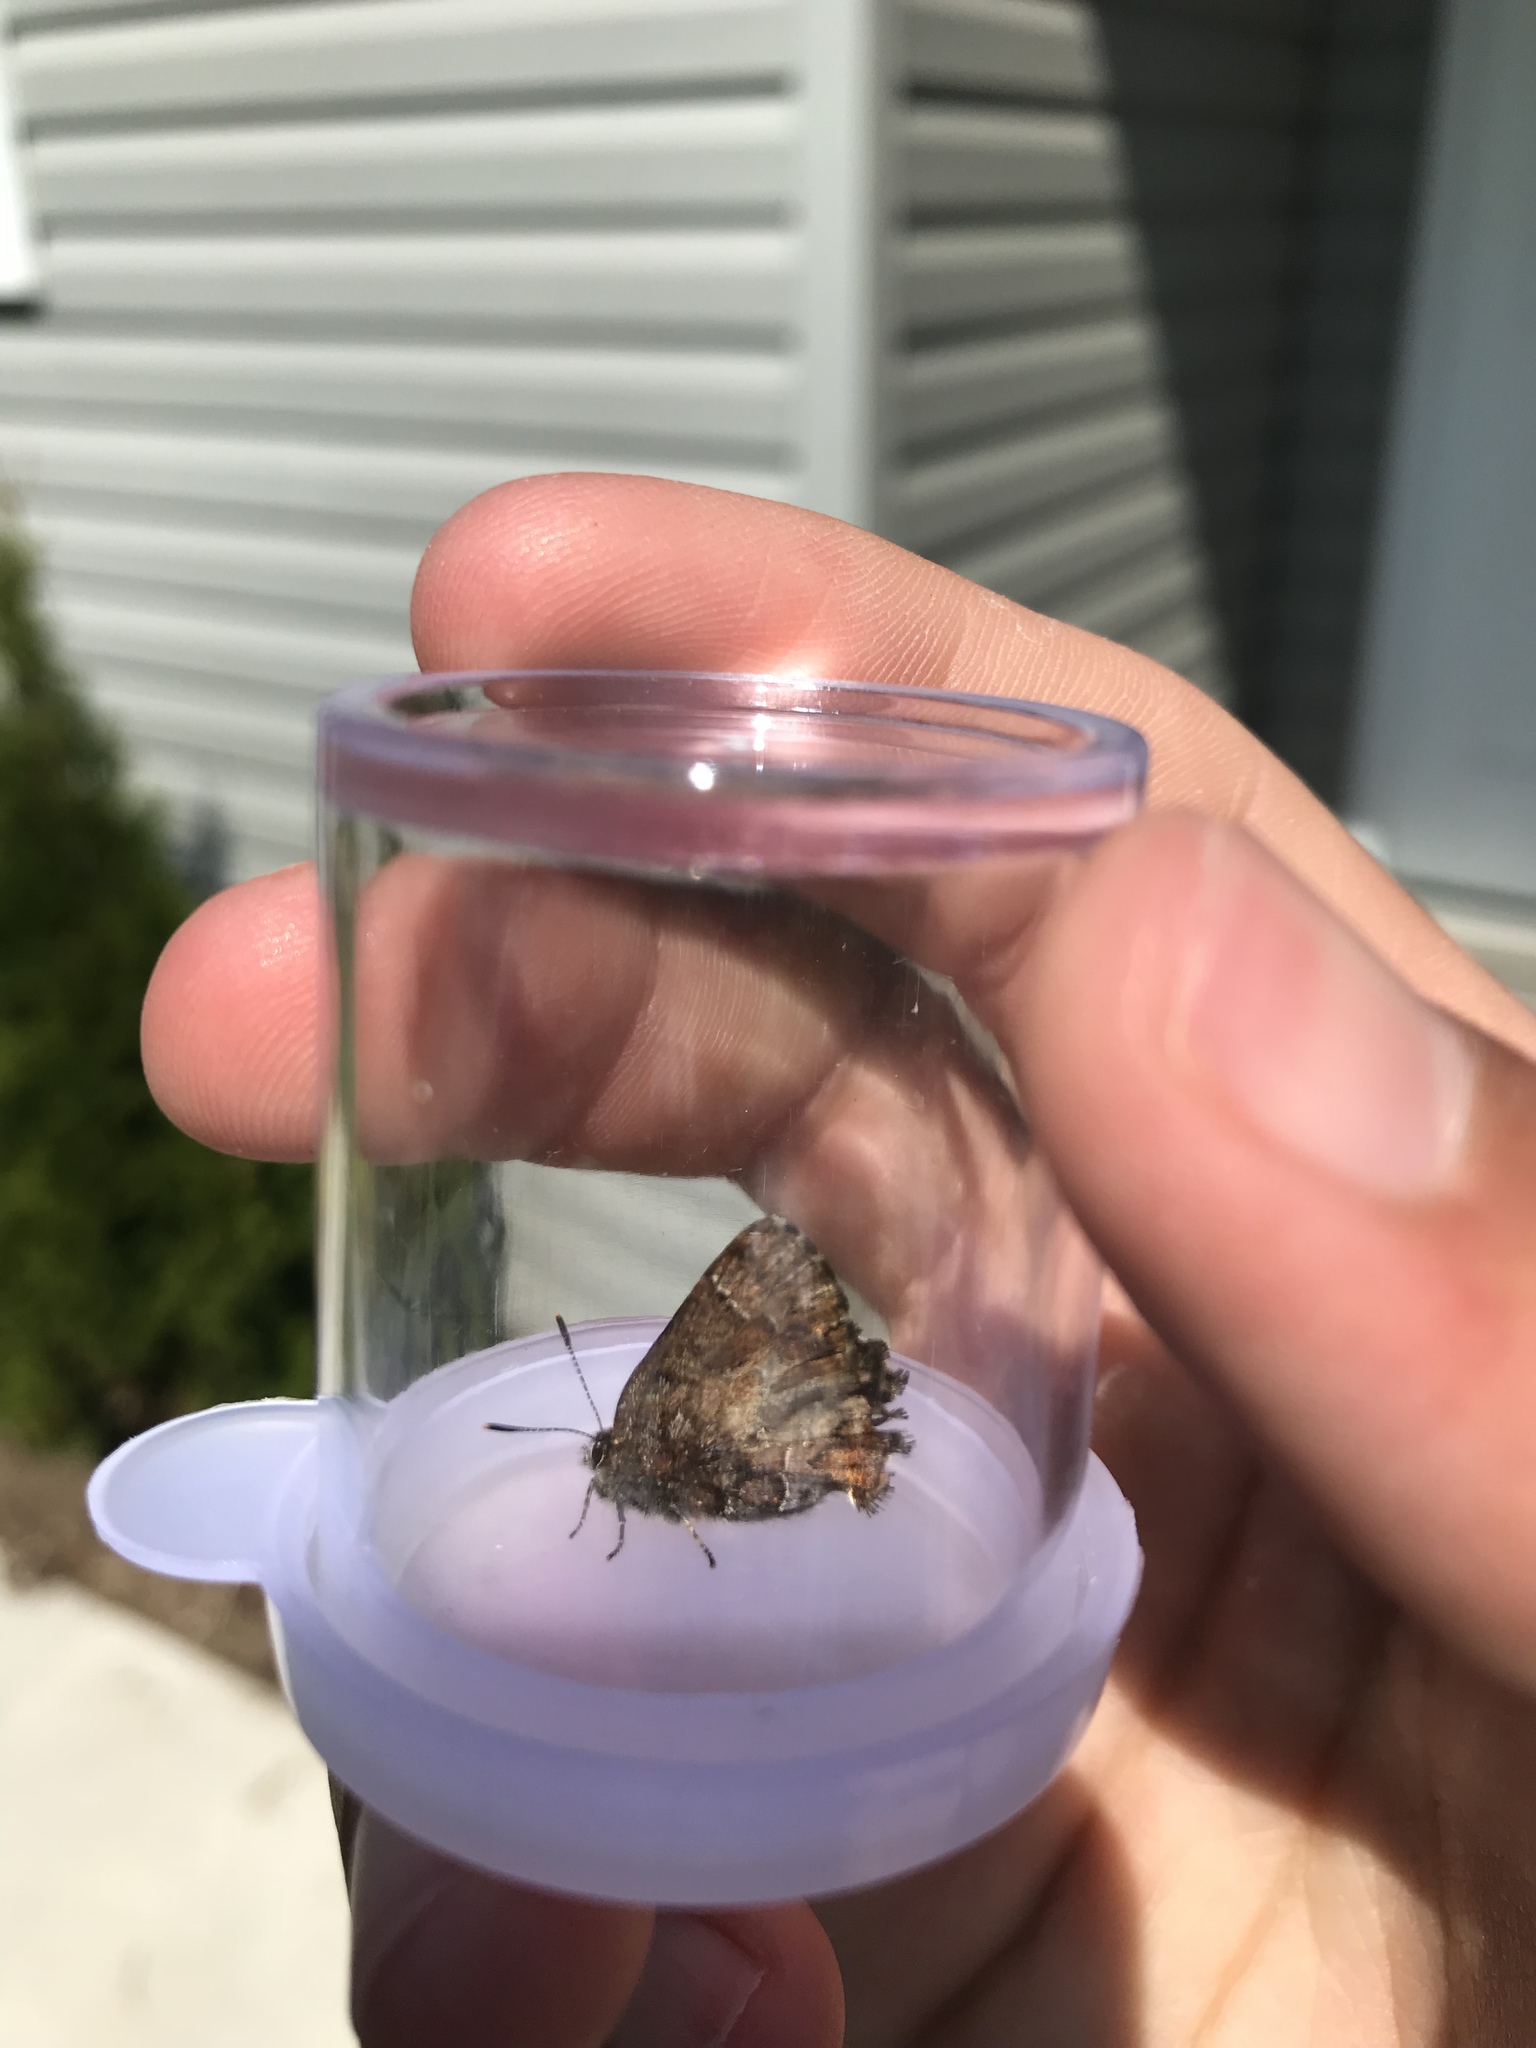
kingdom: Animalia
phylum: Arthropoda
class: Insecta
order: Lepidoptera
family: Lycaenidae
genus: Incisalia
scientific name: Incisalia niphon
